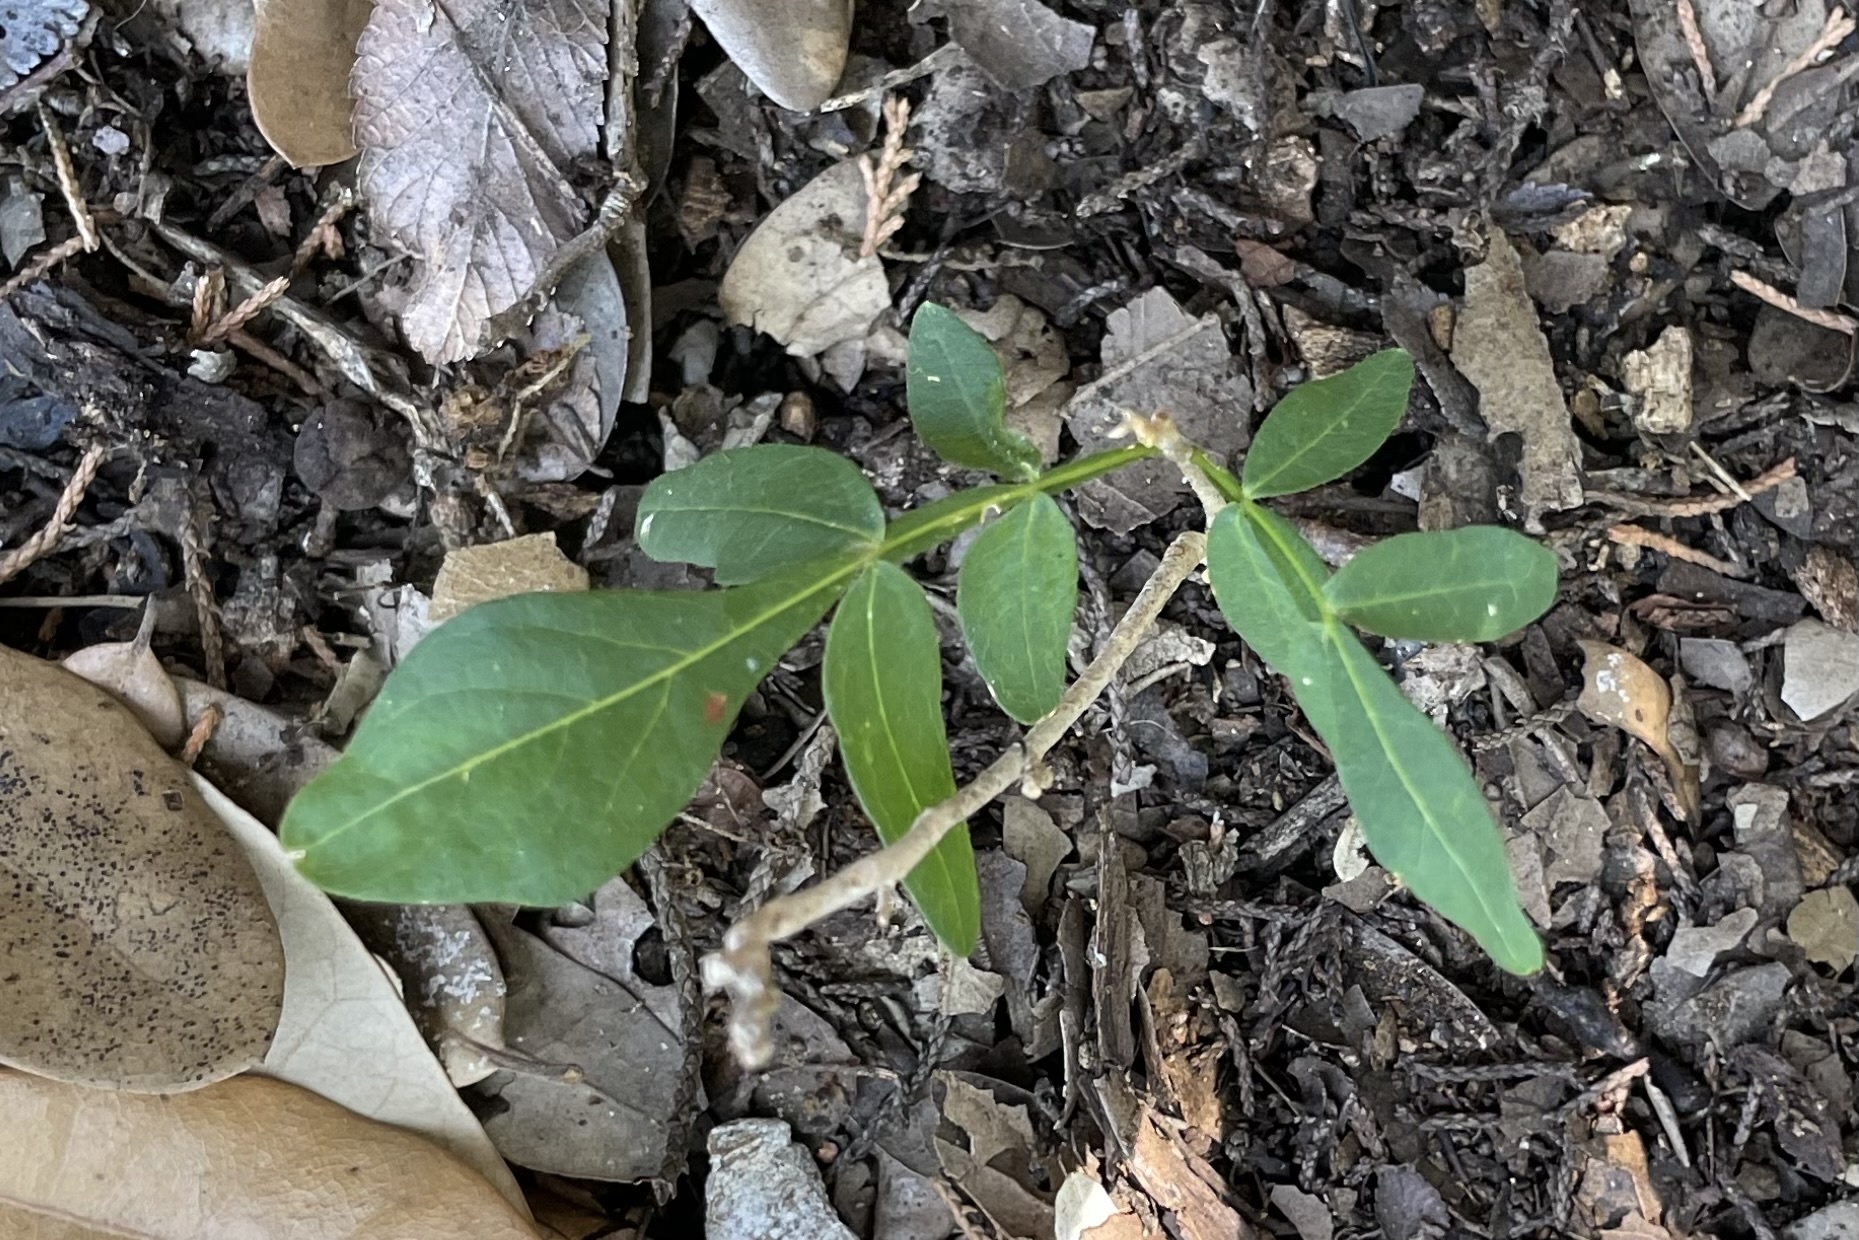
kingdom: Plantae
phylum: Tracheophyta
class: Magnoliopsida
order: Sapindales
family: Sapindaceae
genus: Sapindus
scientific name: Sapindus drummondii
